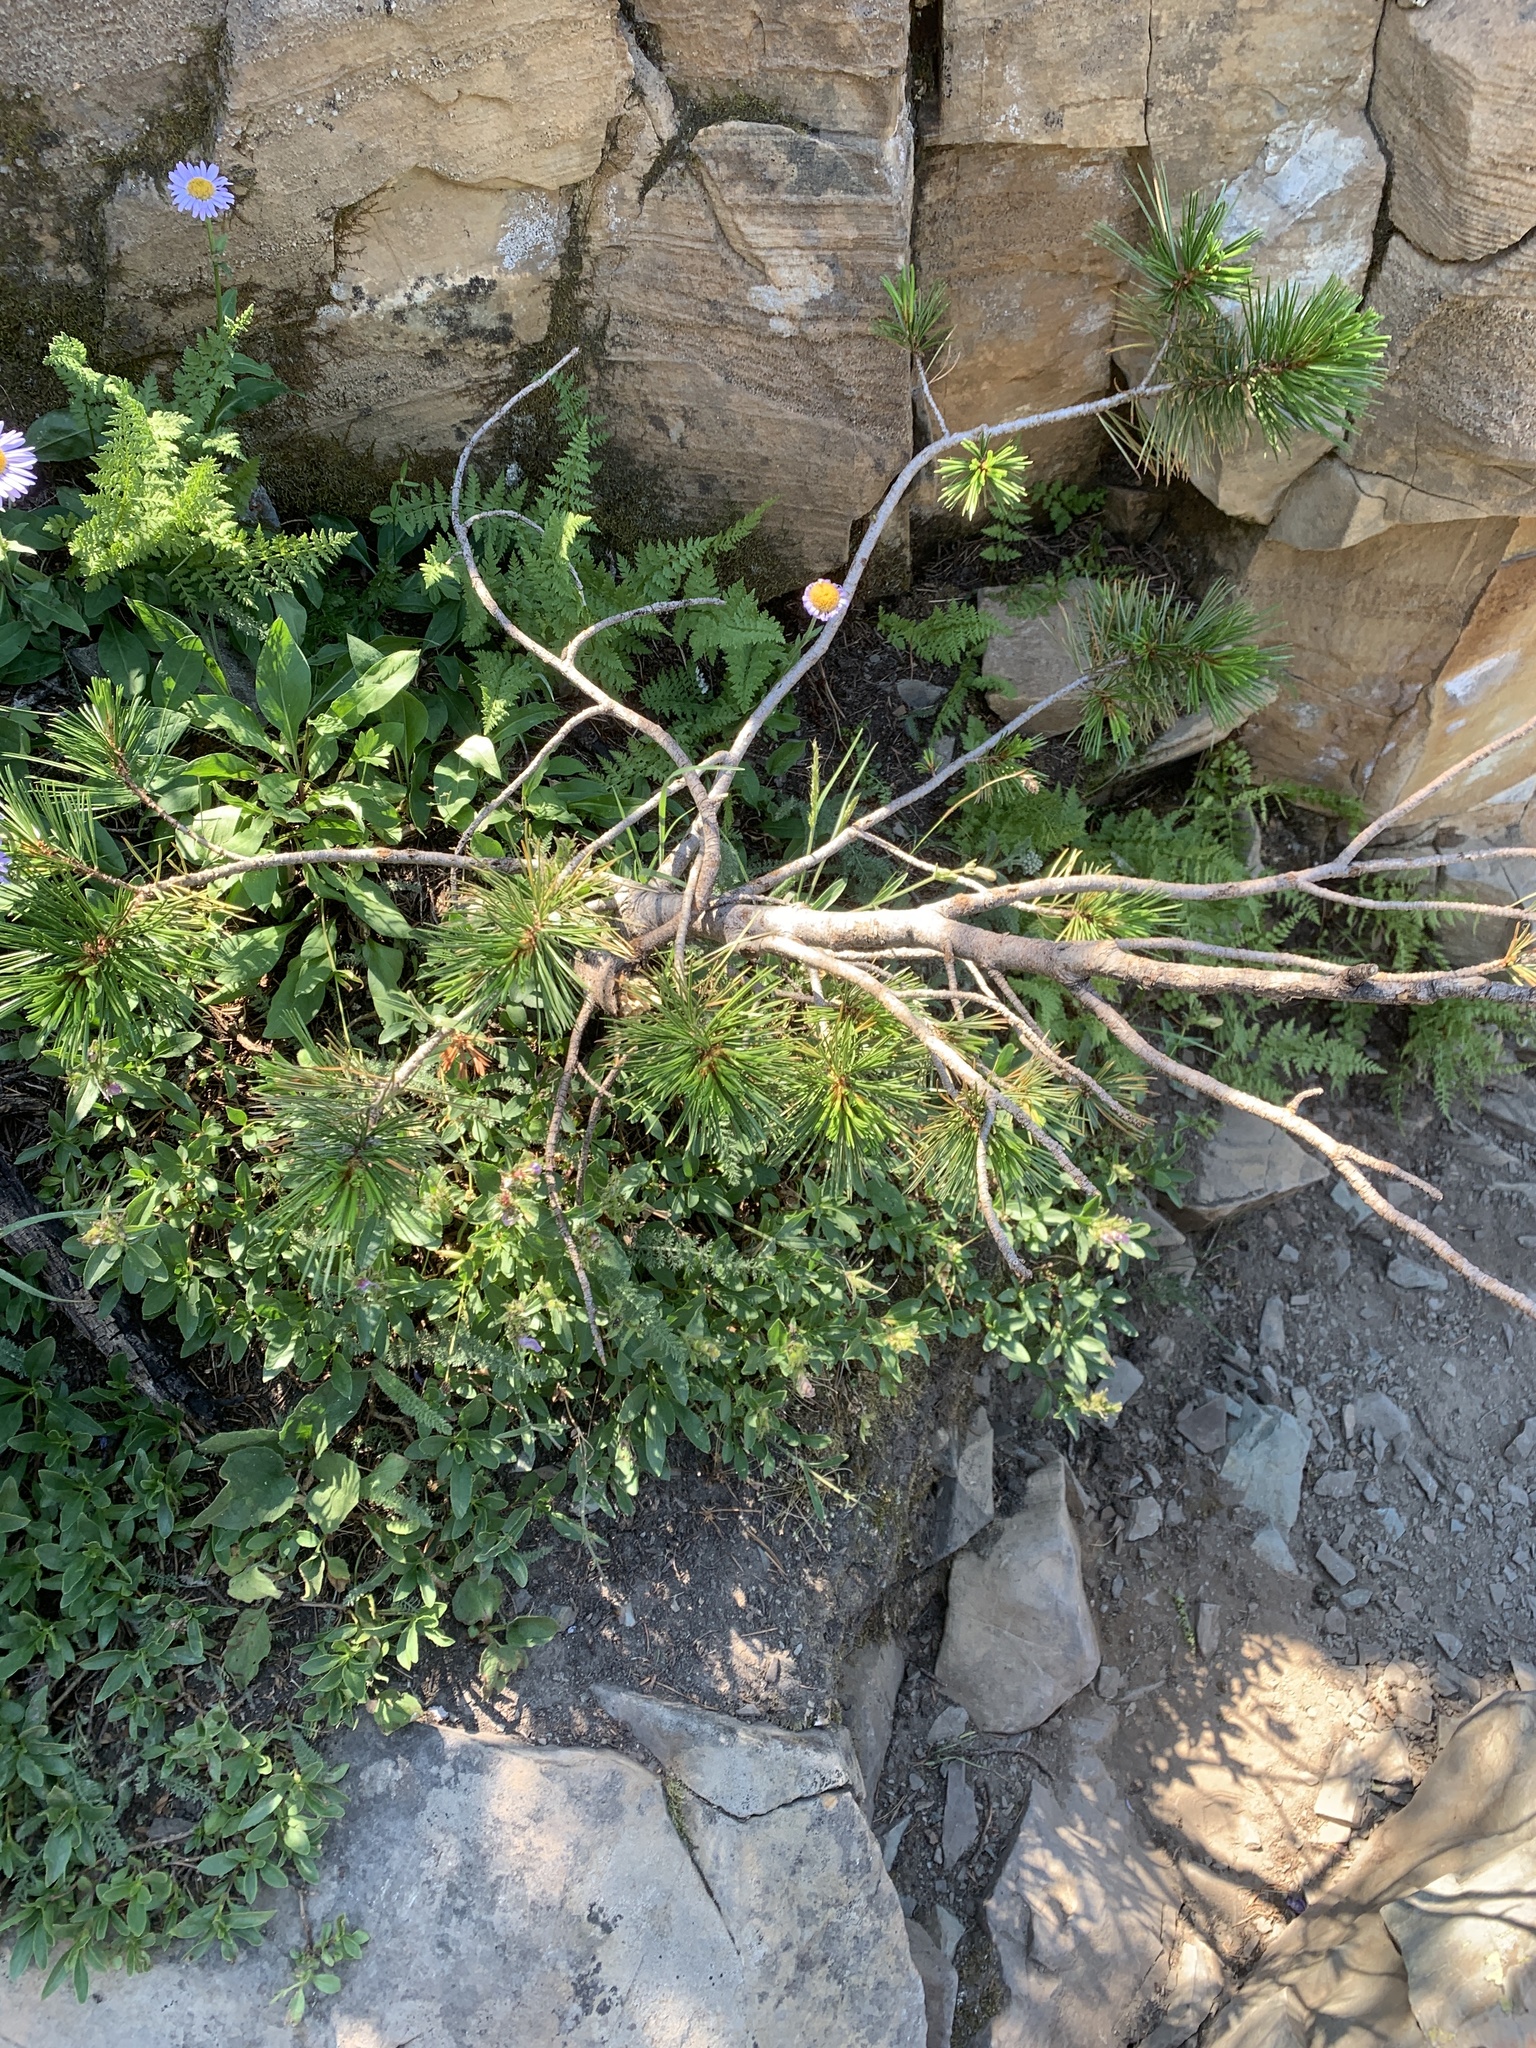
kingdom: Plantae
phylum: Tracheophyta
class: Pinopsida
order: Pinales
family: Pinaceae
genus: Pinus
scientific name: Pinus albicaulis
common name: Whitebark pine
